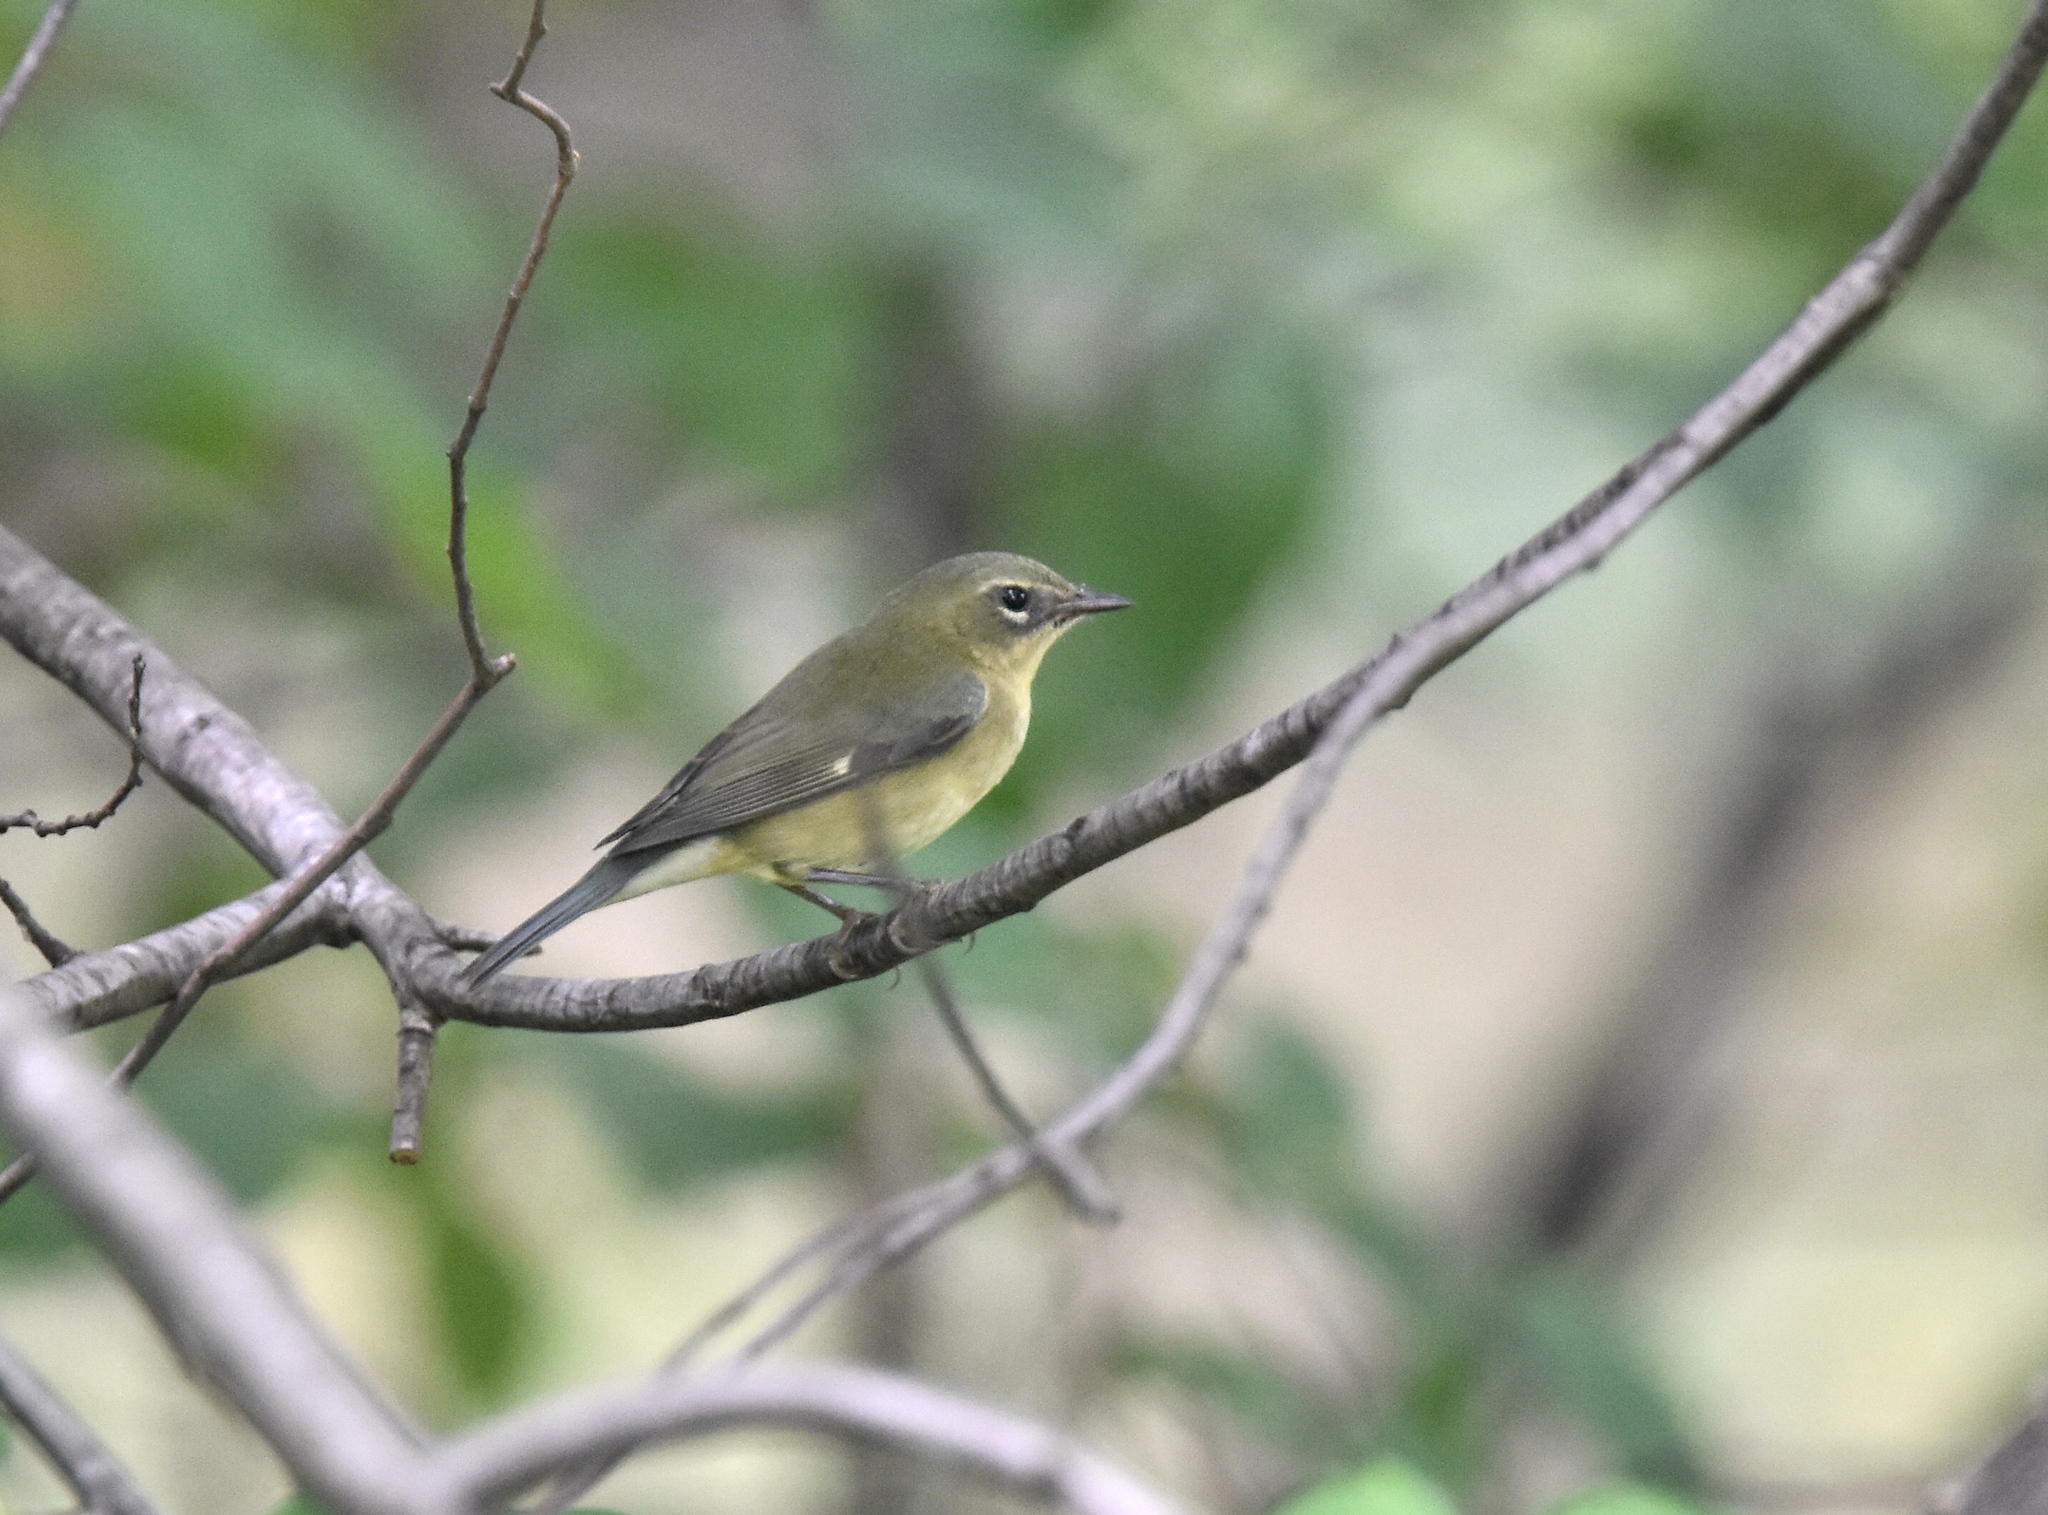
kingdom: Animalia
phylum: Chordata
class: Aves
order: Passeriformes
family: Parulidae
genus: Setophaga
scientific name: Setophaga caerulescens
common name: Black-throated blue warbler
